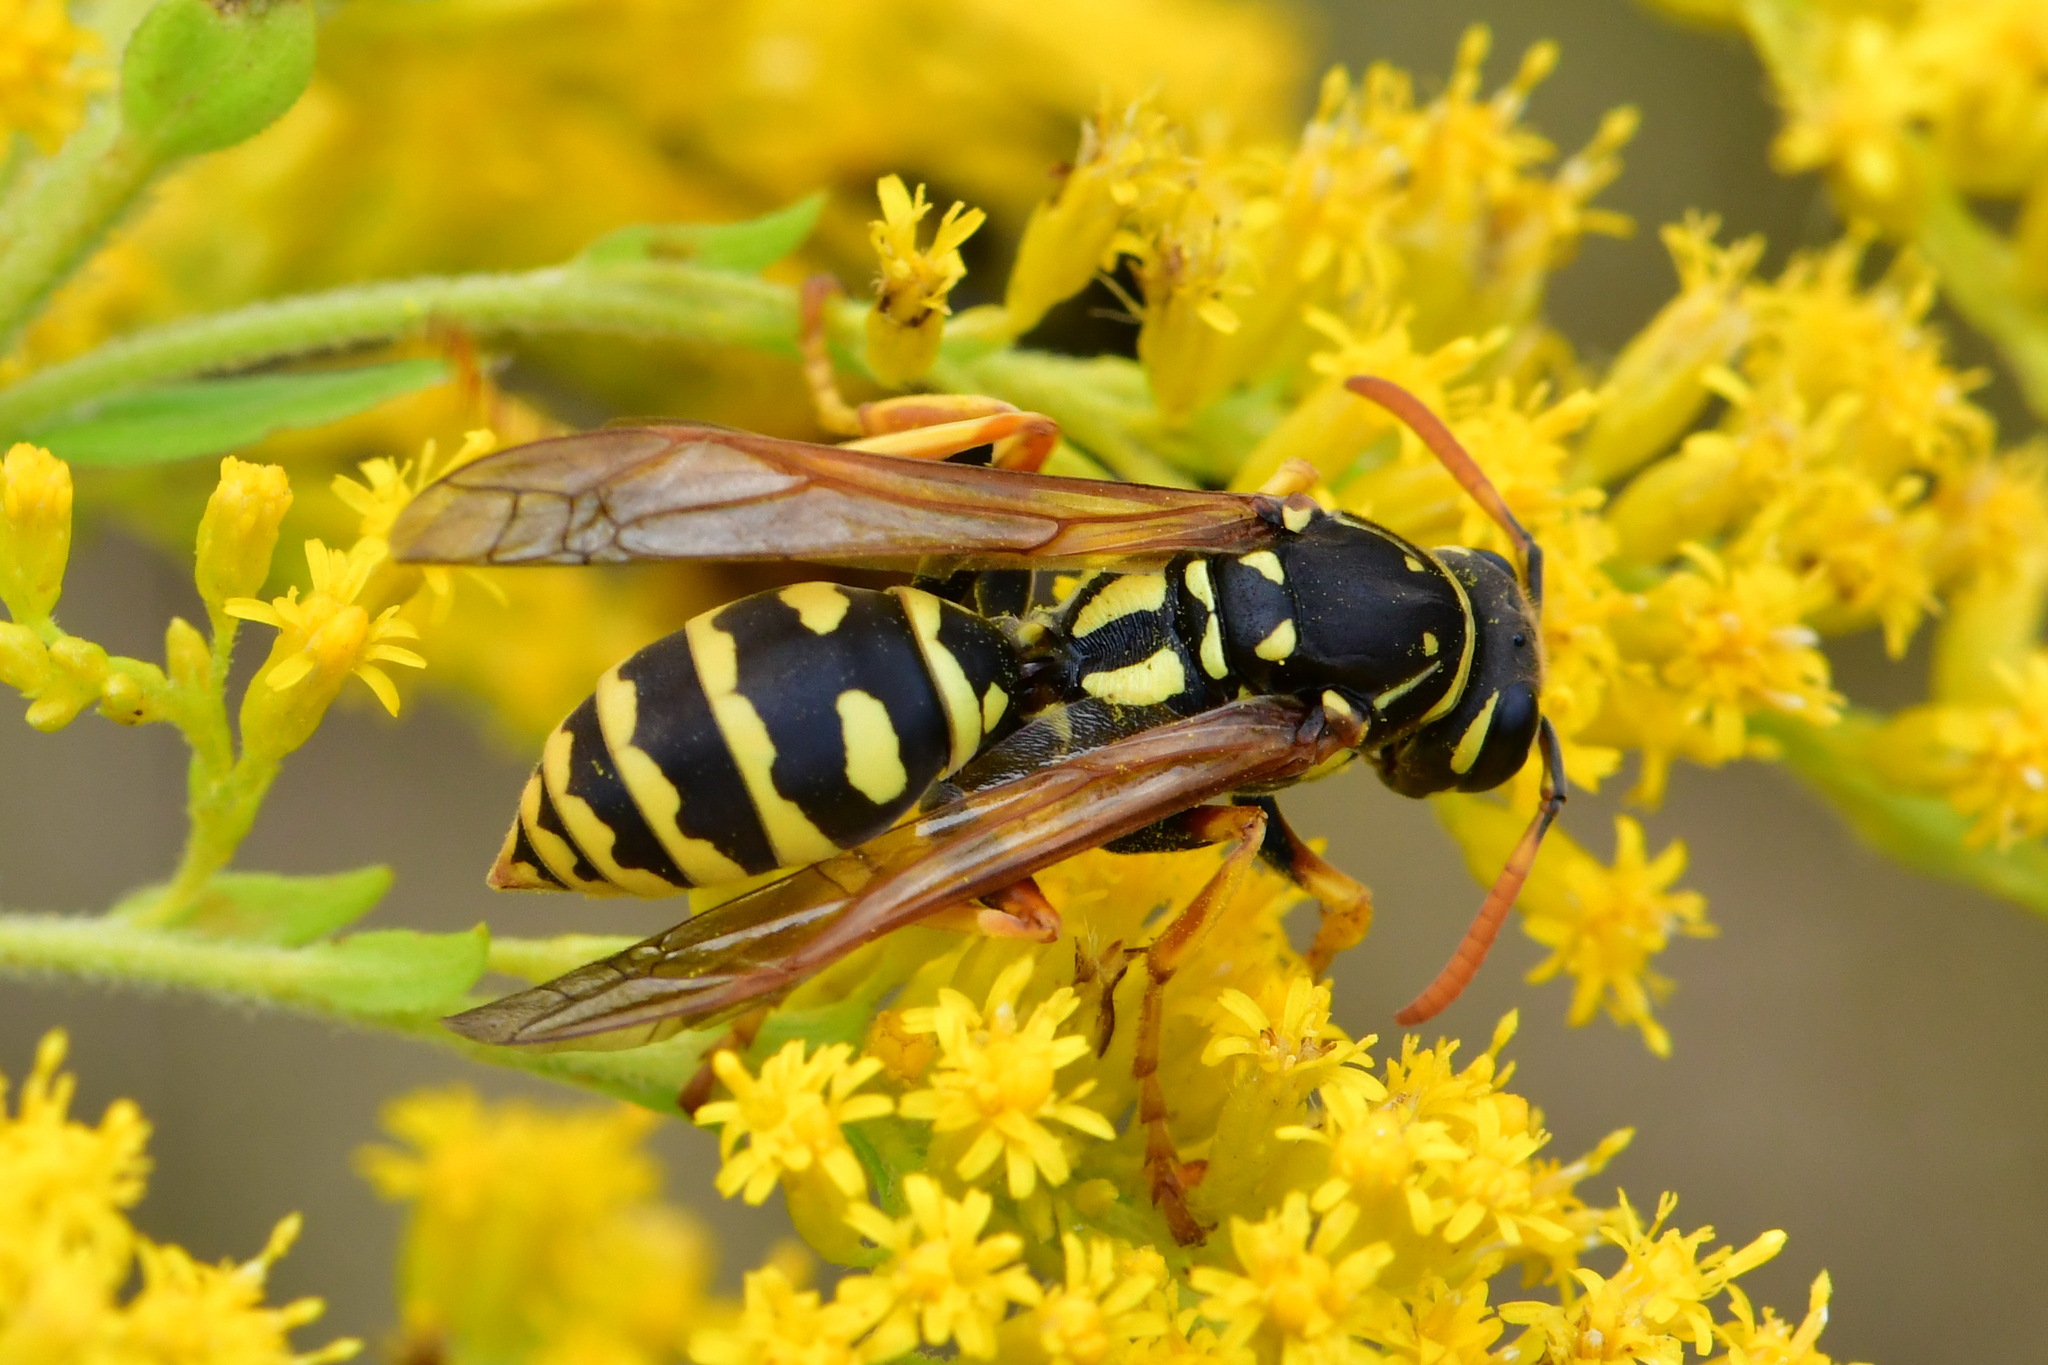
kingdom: Animalia
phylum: Arthropoda
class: Insecta
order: Hymenoptera
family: Eumenidae
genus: Polistes
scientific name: Polistes dominula
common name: Paper wasp
